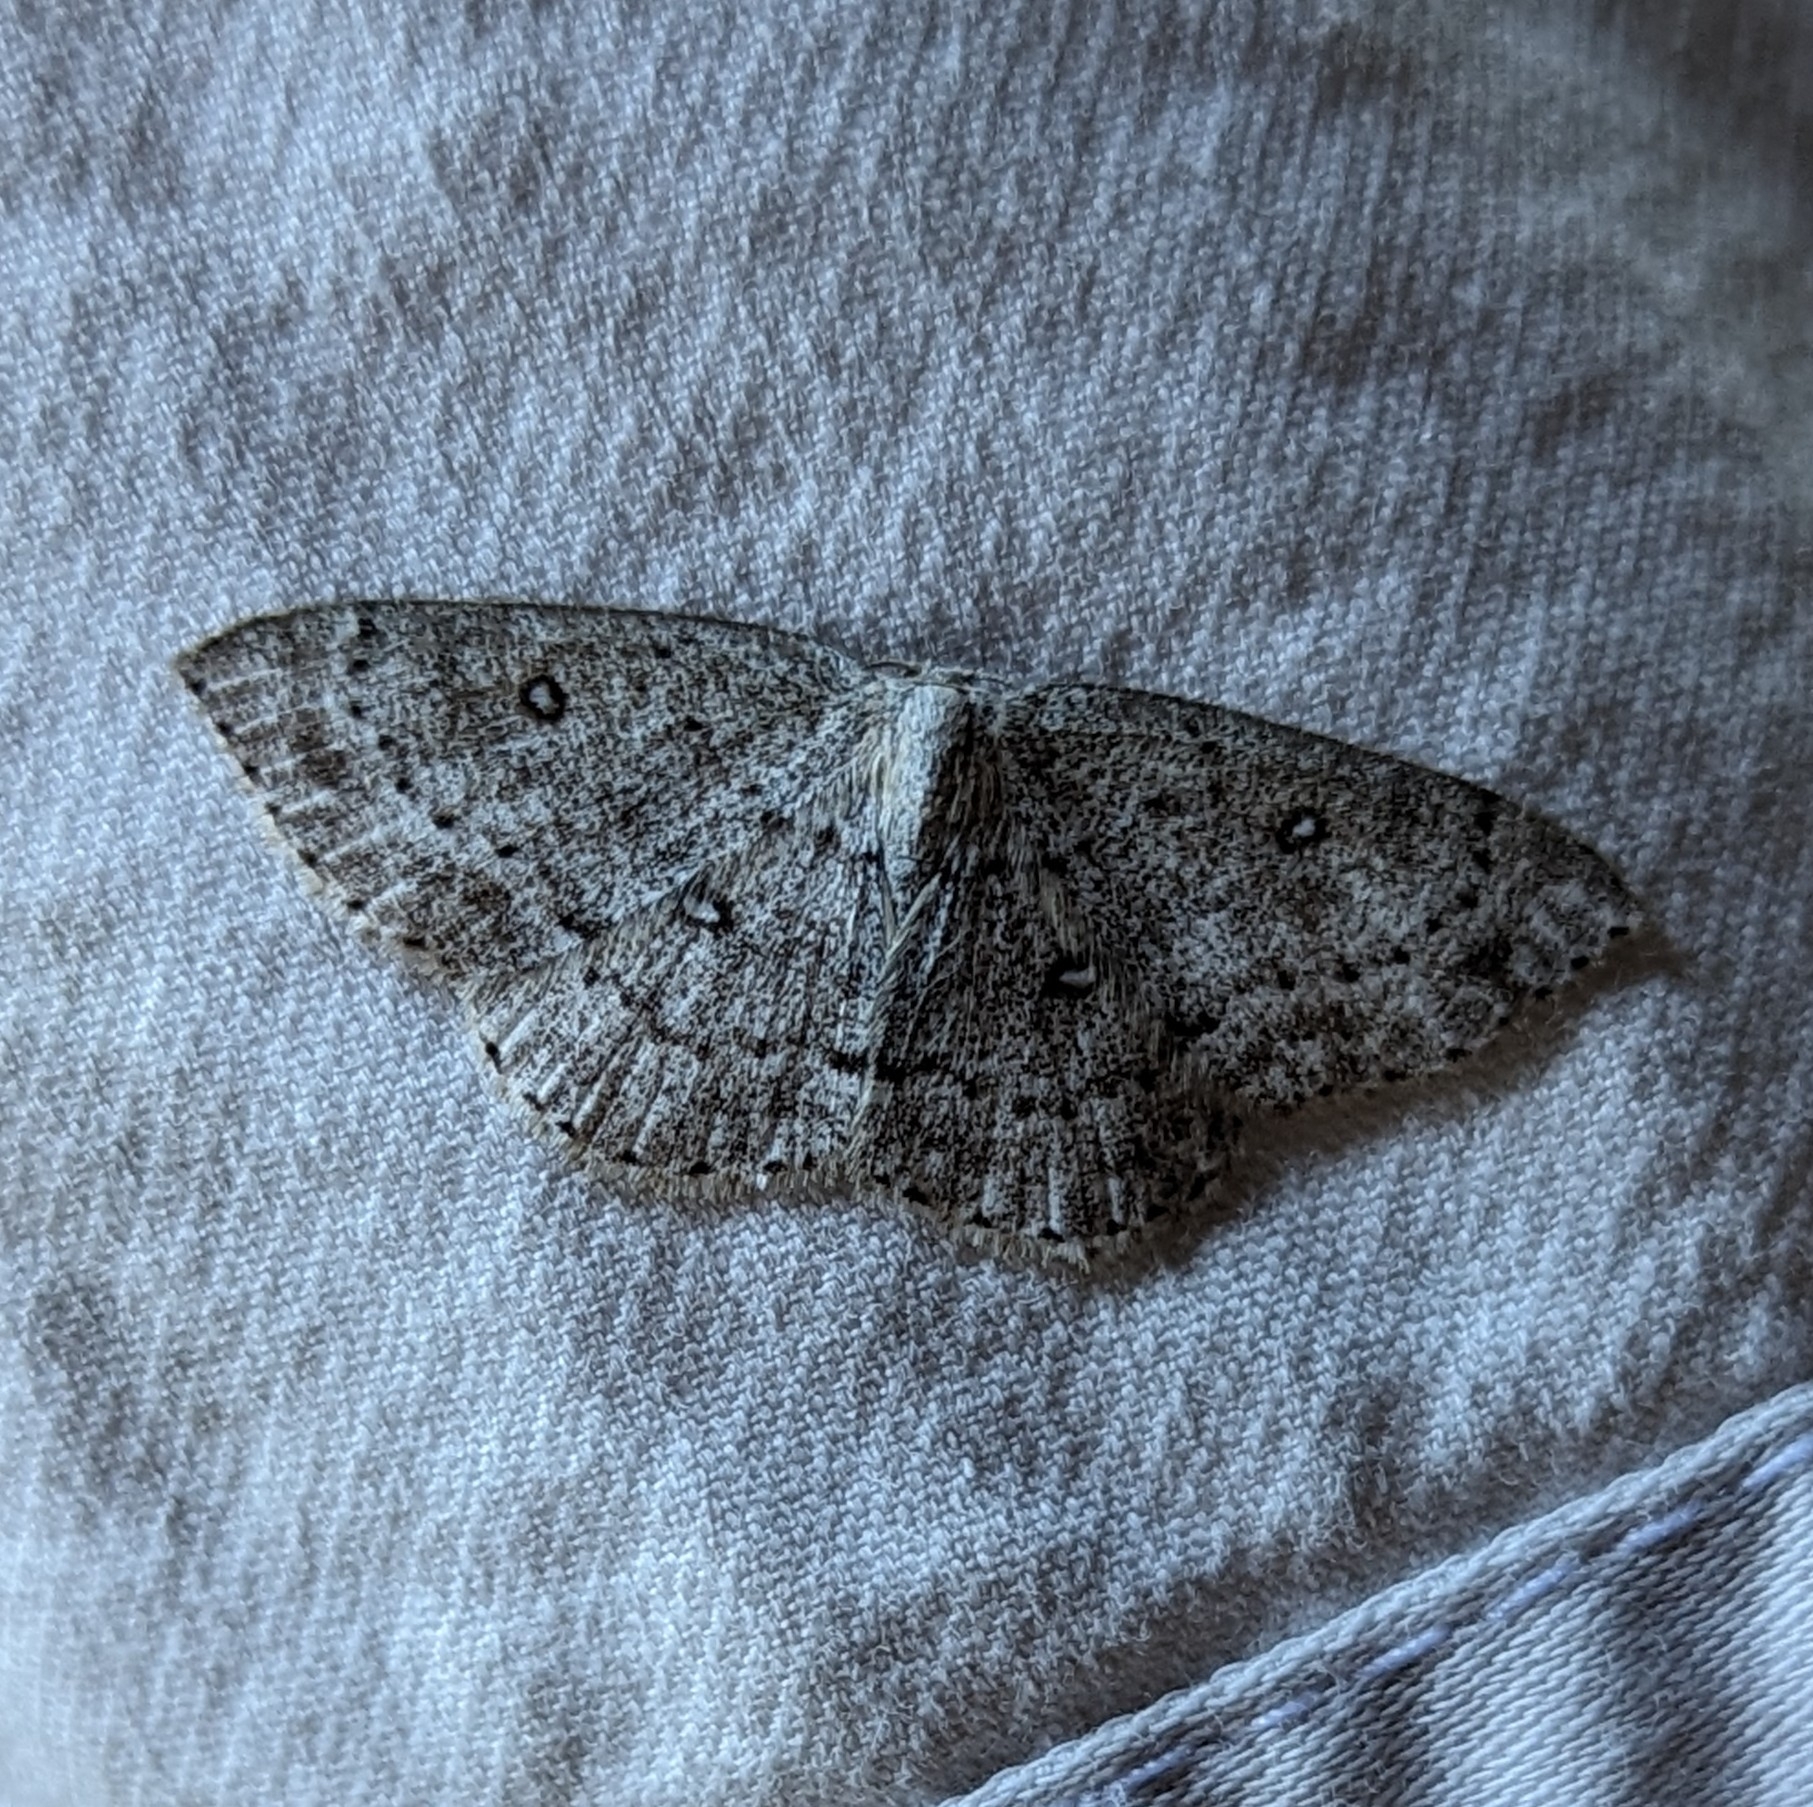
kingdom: Animalia
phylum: Arthropoda
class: Insecta
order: Lepidoptera
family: Geometridae
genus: Cyclophora
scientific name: Cyclophora pendulinaria
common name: Sweet fern geometer
